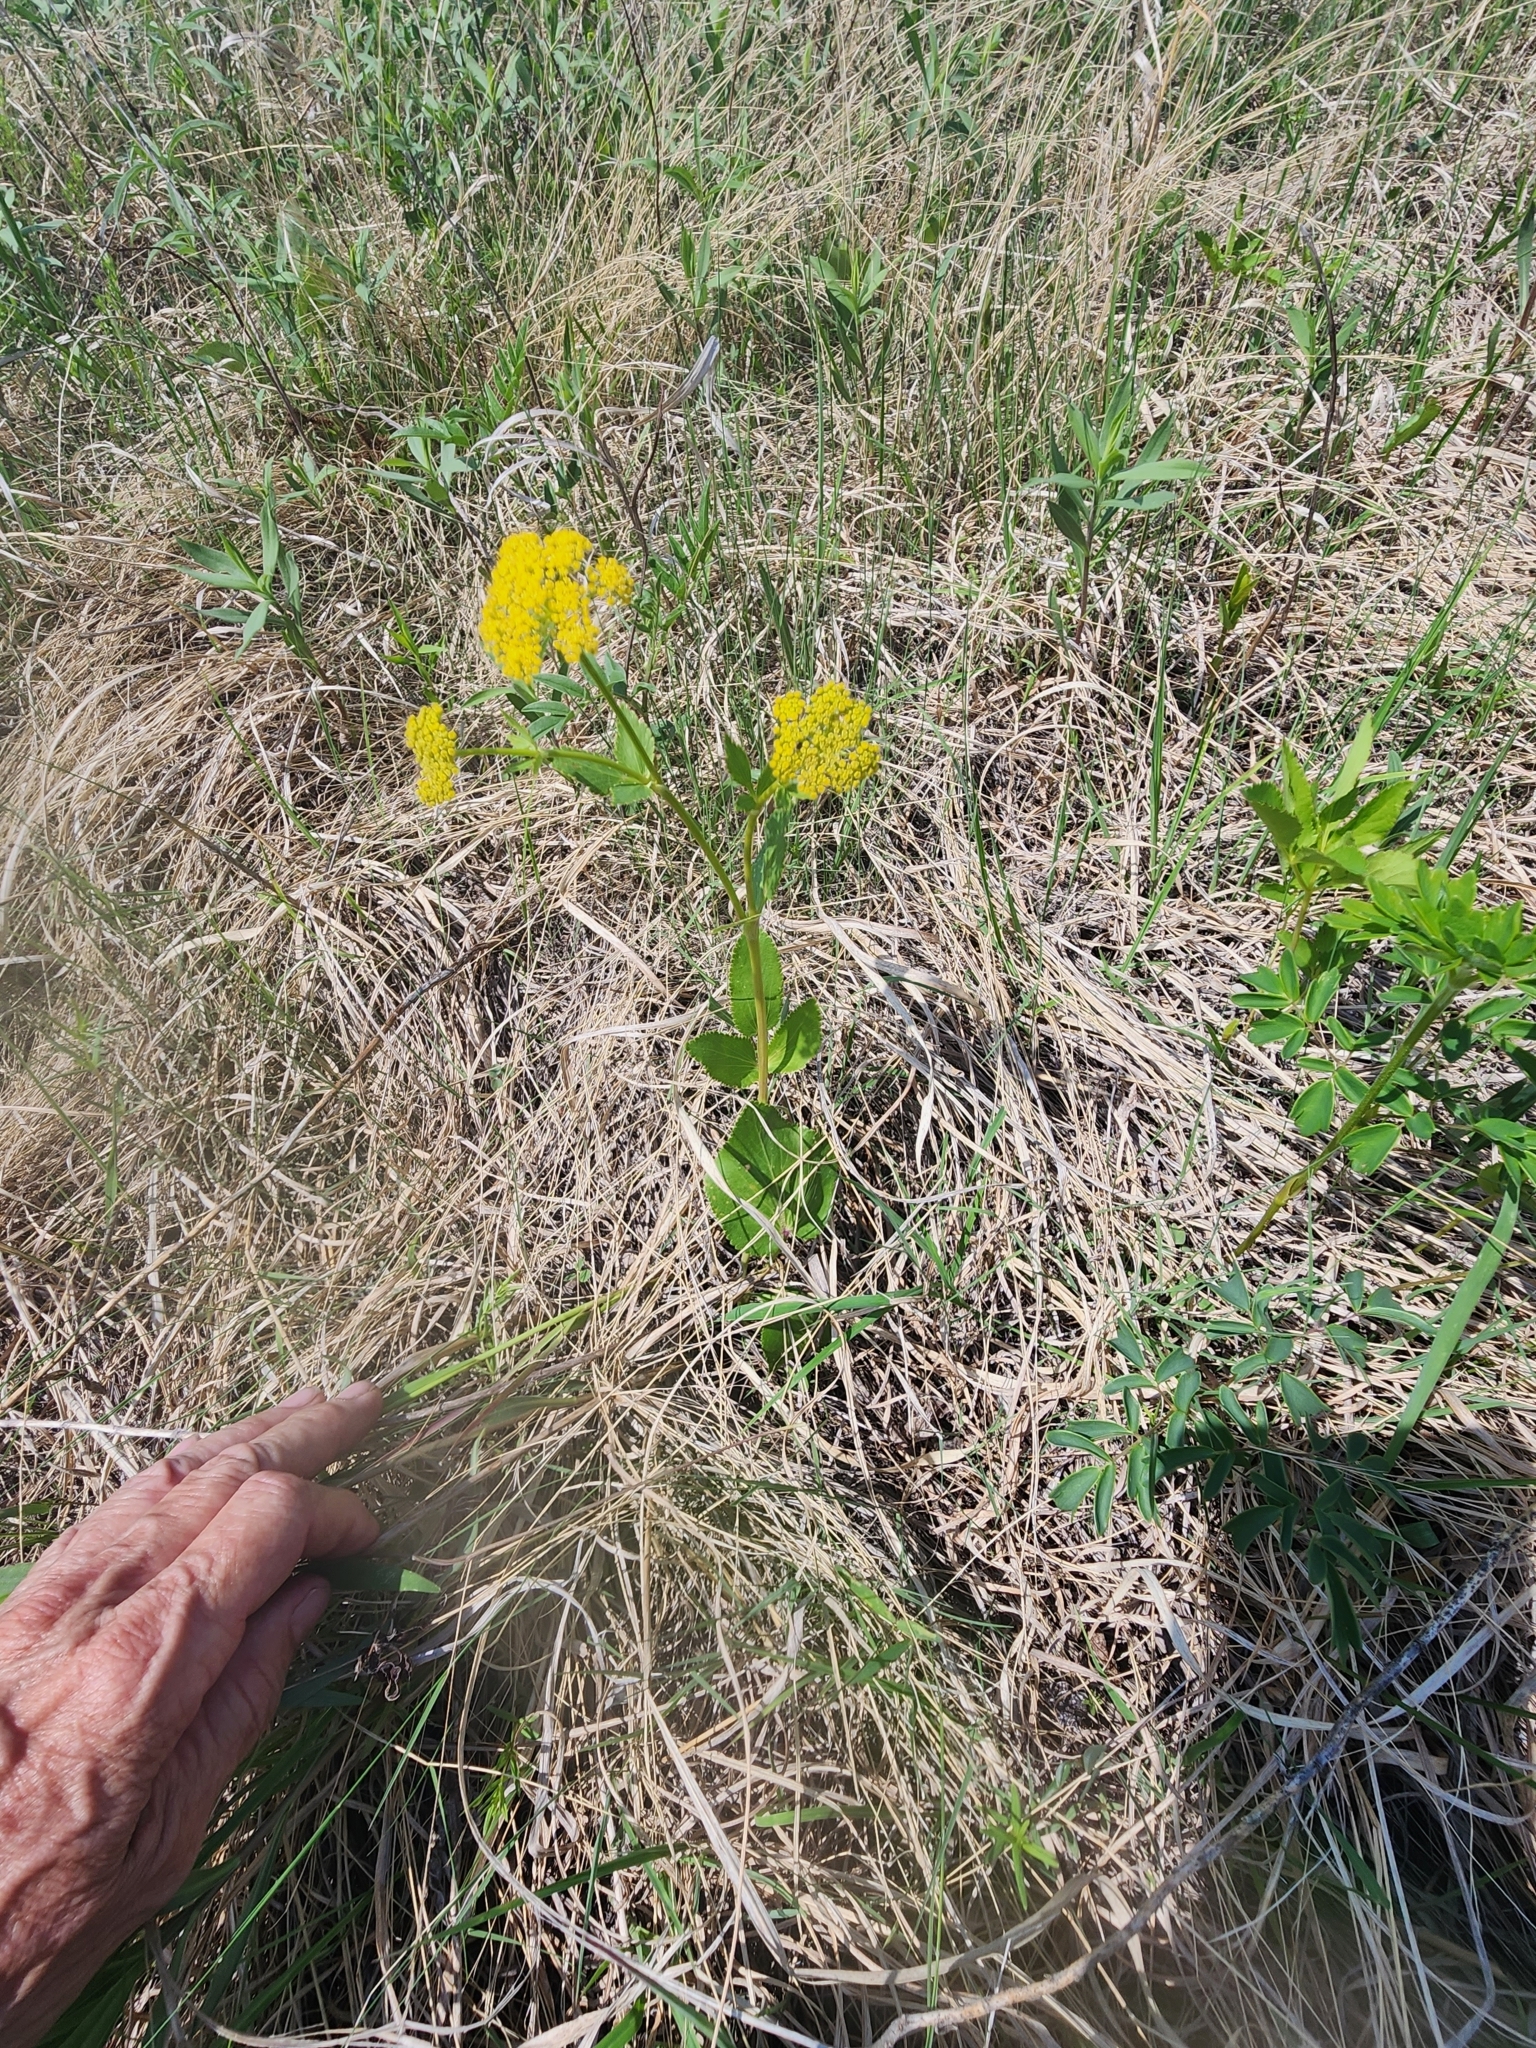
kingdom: Plantae
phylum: Tracheophyta
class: Magnoliopsida
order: Apiales
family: Apiaceae
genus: Zizia
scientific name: Zizia aptera
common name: Heart-leaved alexanders
